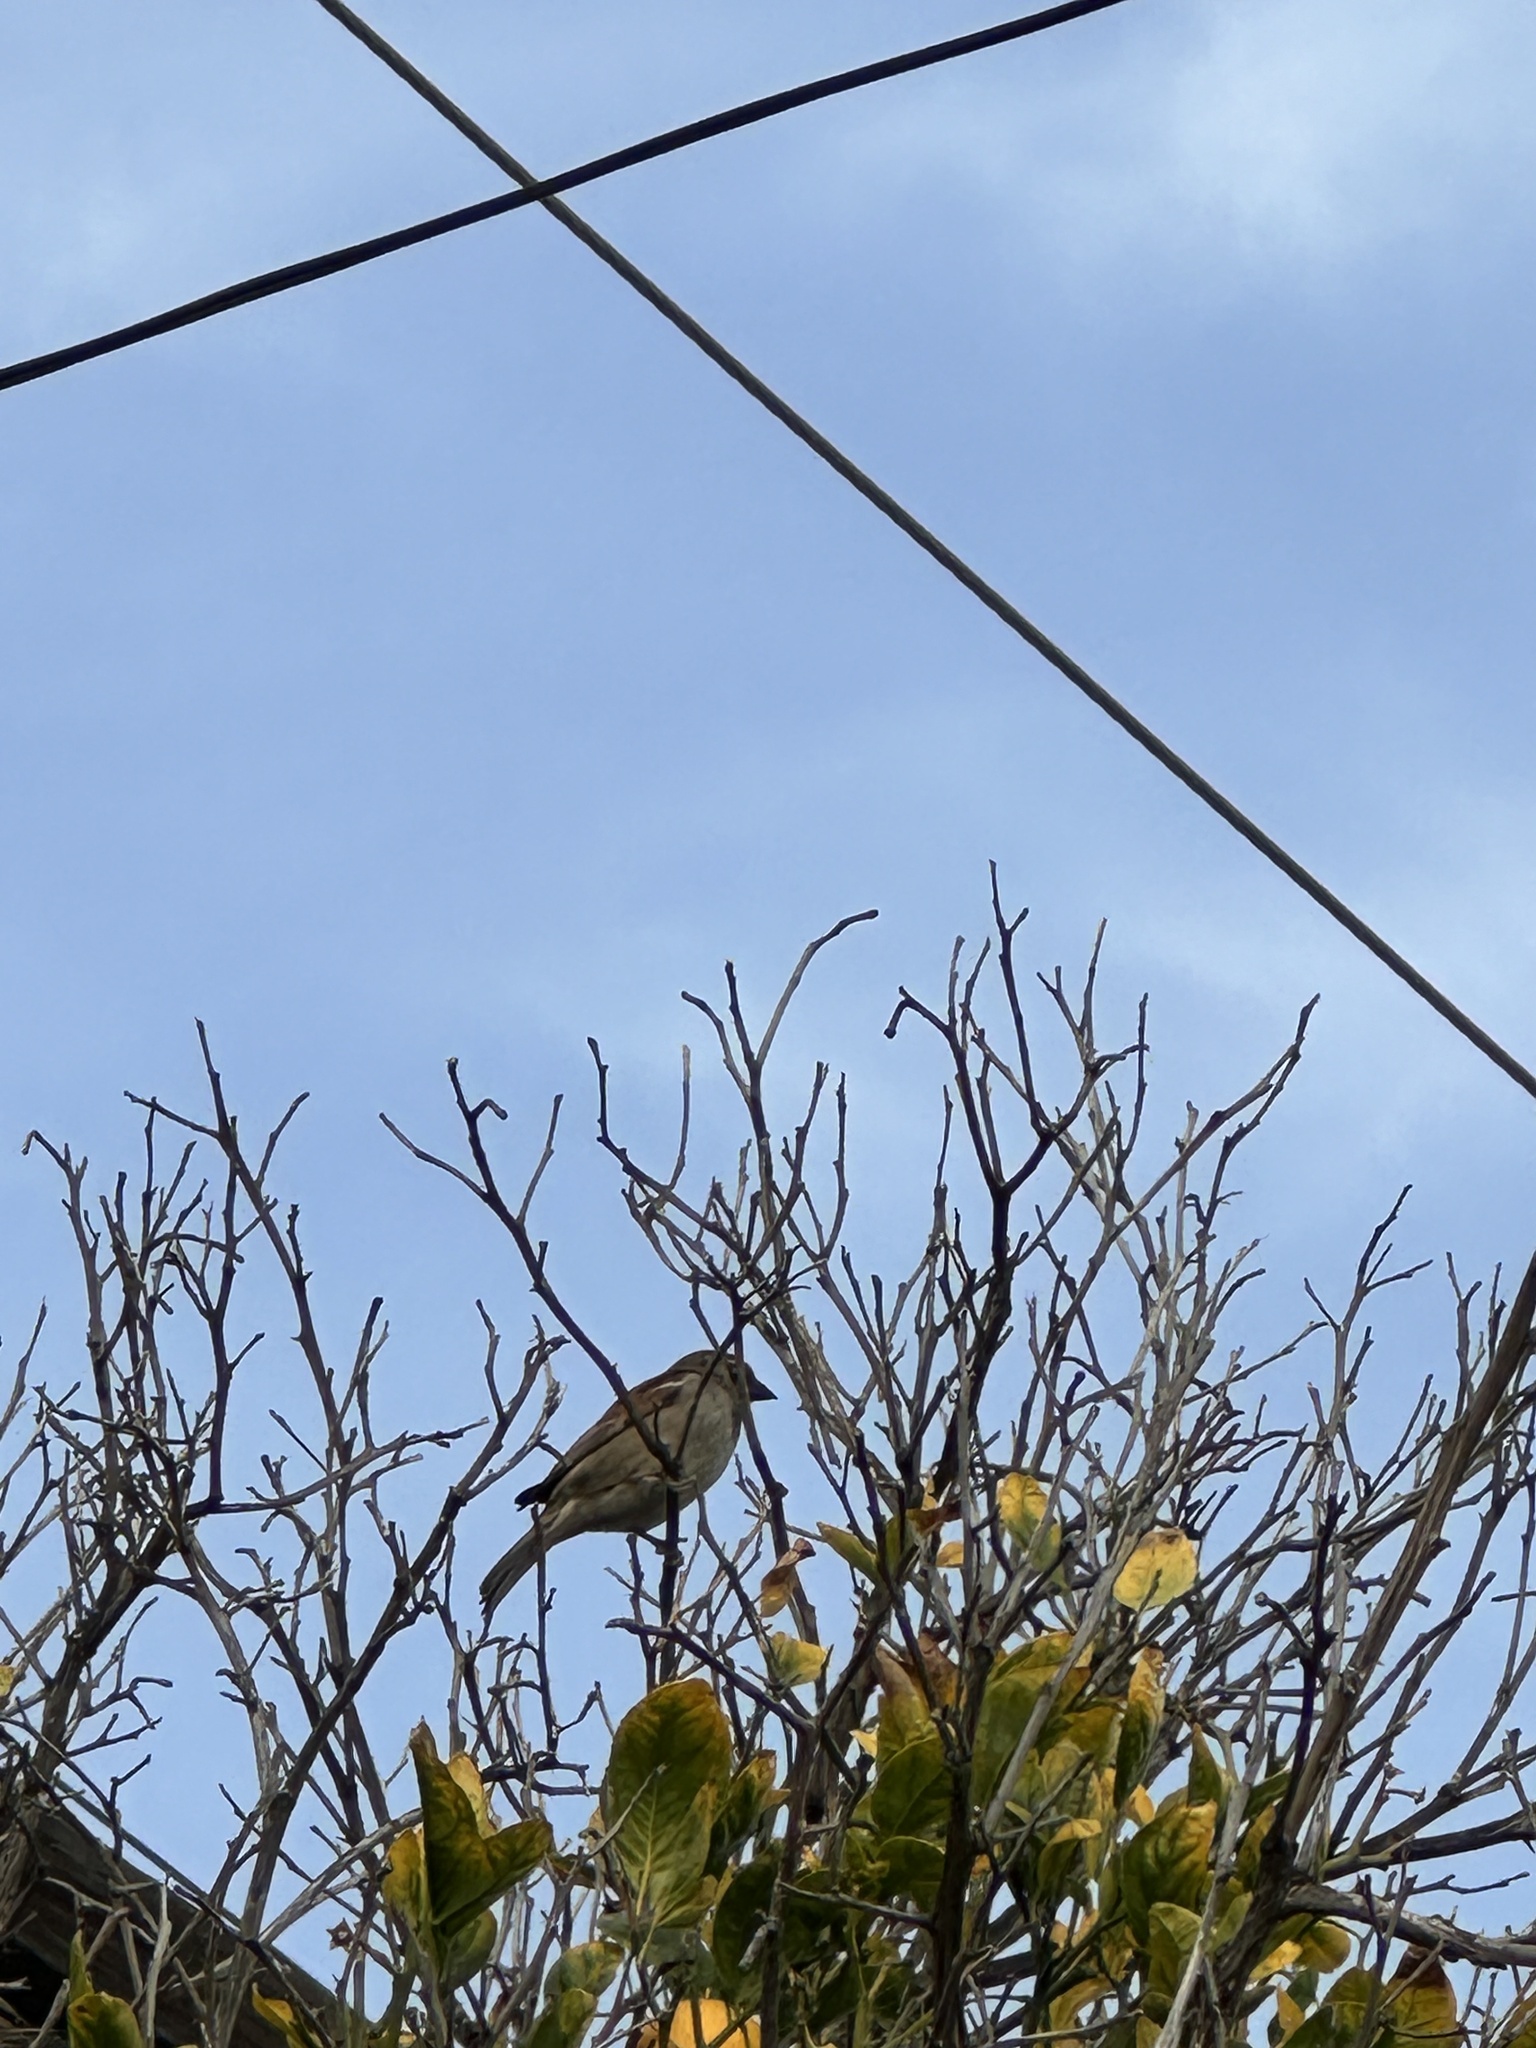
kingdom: Animalia
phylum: Chordata
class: Aves
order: Passeriformes
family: Passeridae
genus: Passer
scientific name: Passer domesticus
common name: House sparrow
